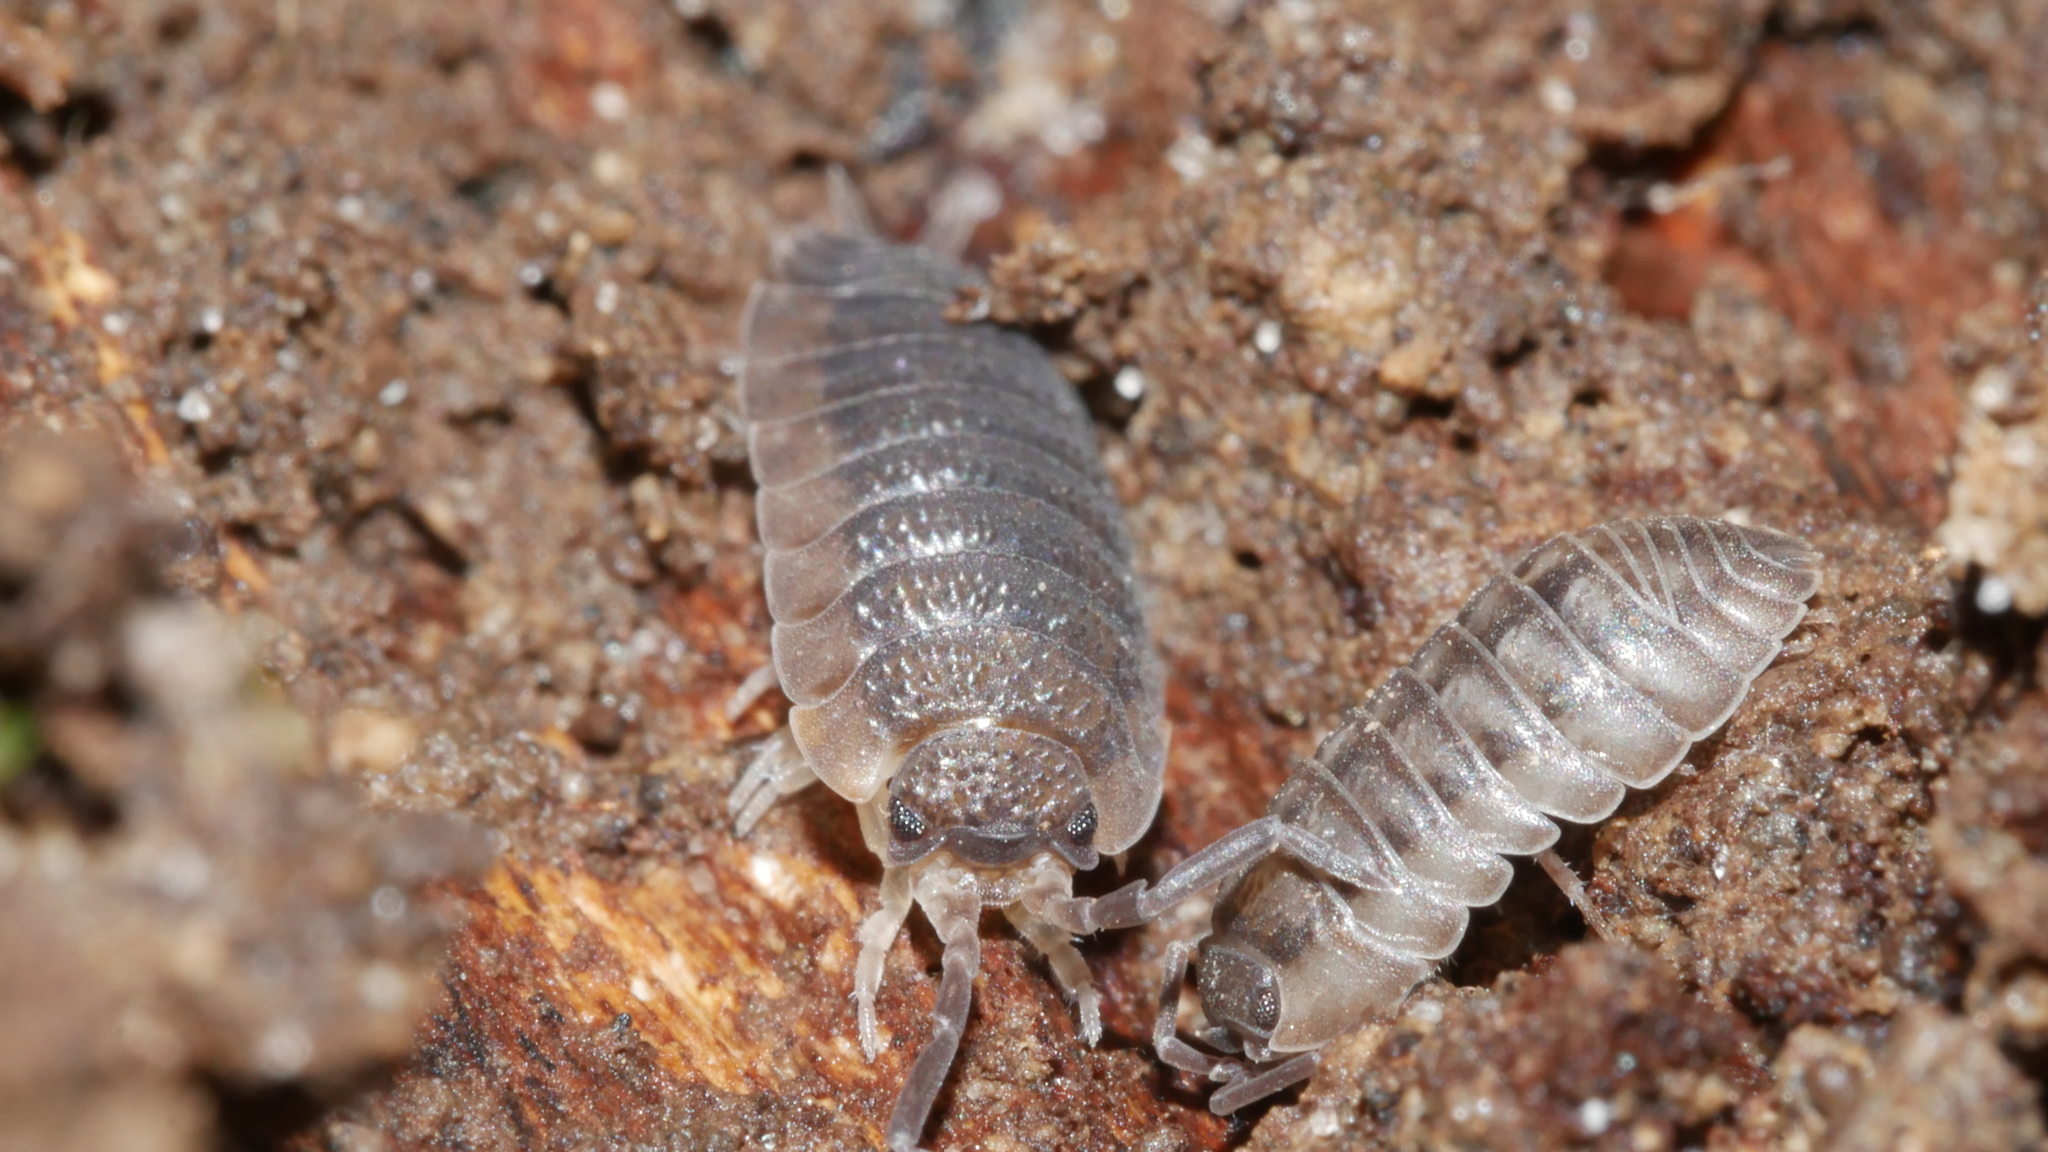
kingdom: Animalia
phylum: Arthropoda
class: Malacostraca
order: Isopoda
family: Porcellionidae
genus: Porcellio
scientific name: Porcellio scaber
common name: Common rough woodlouse
